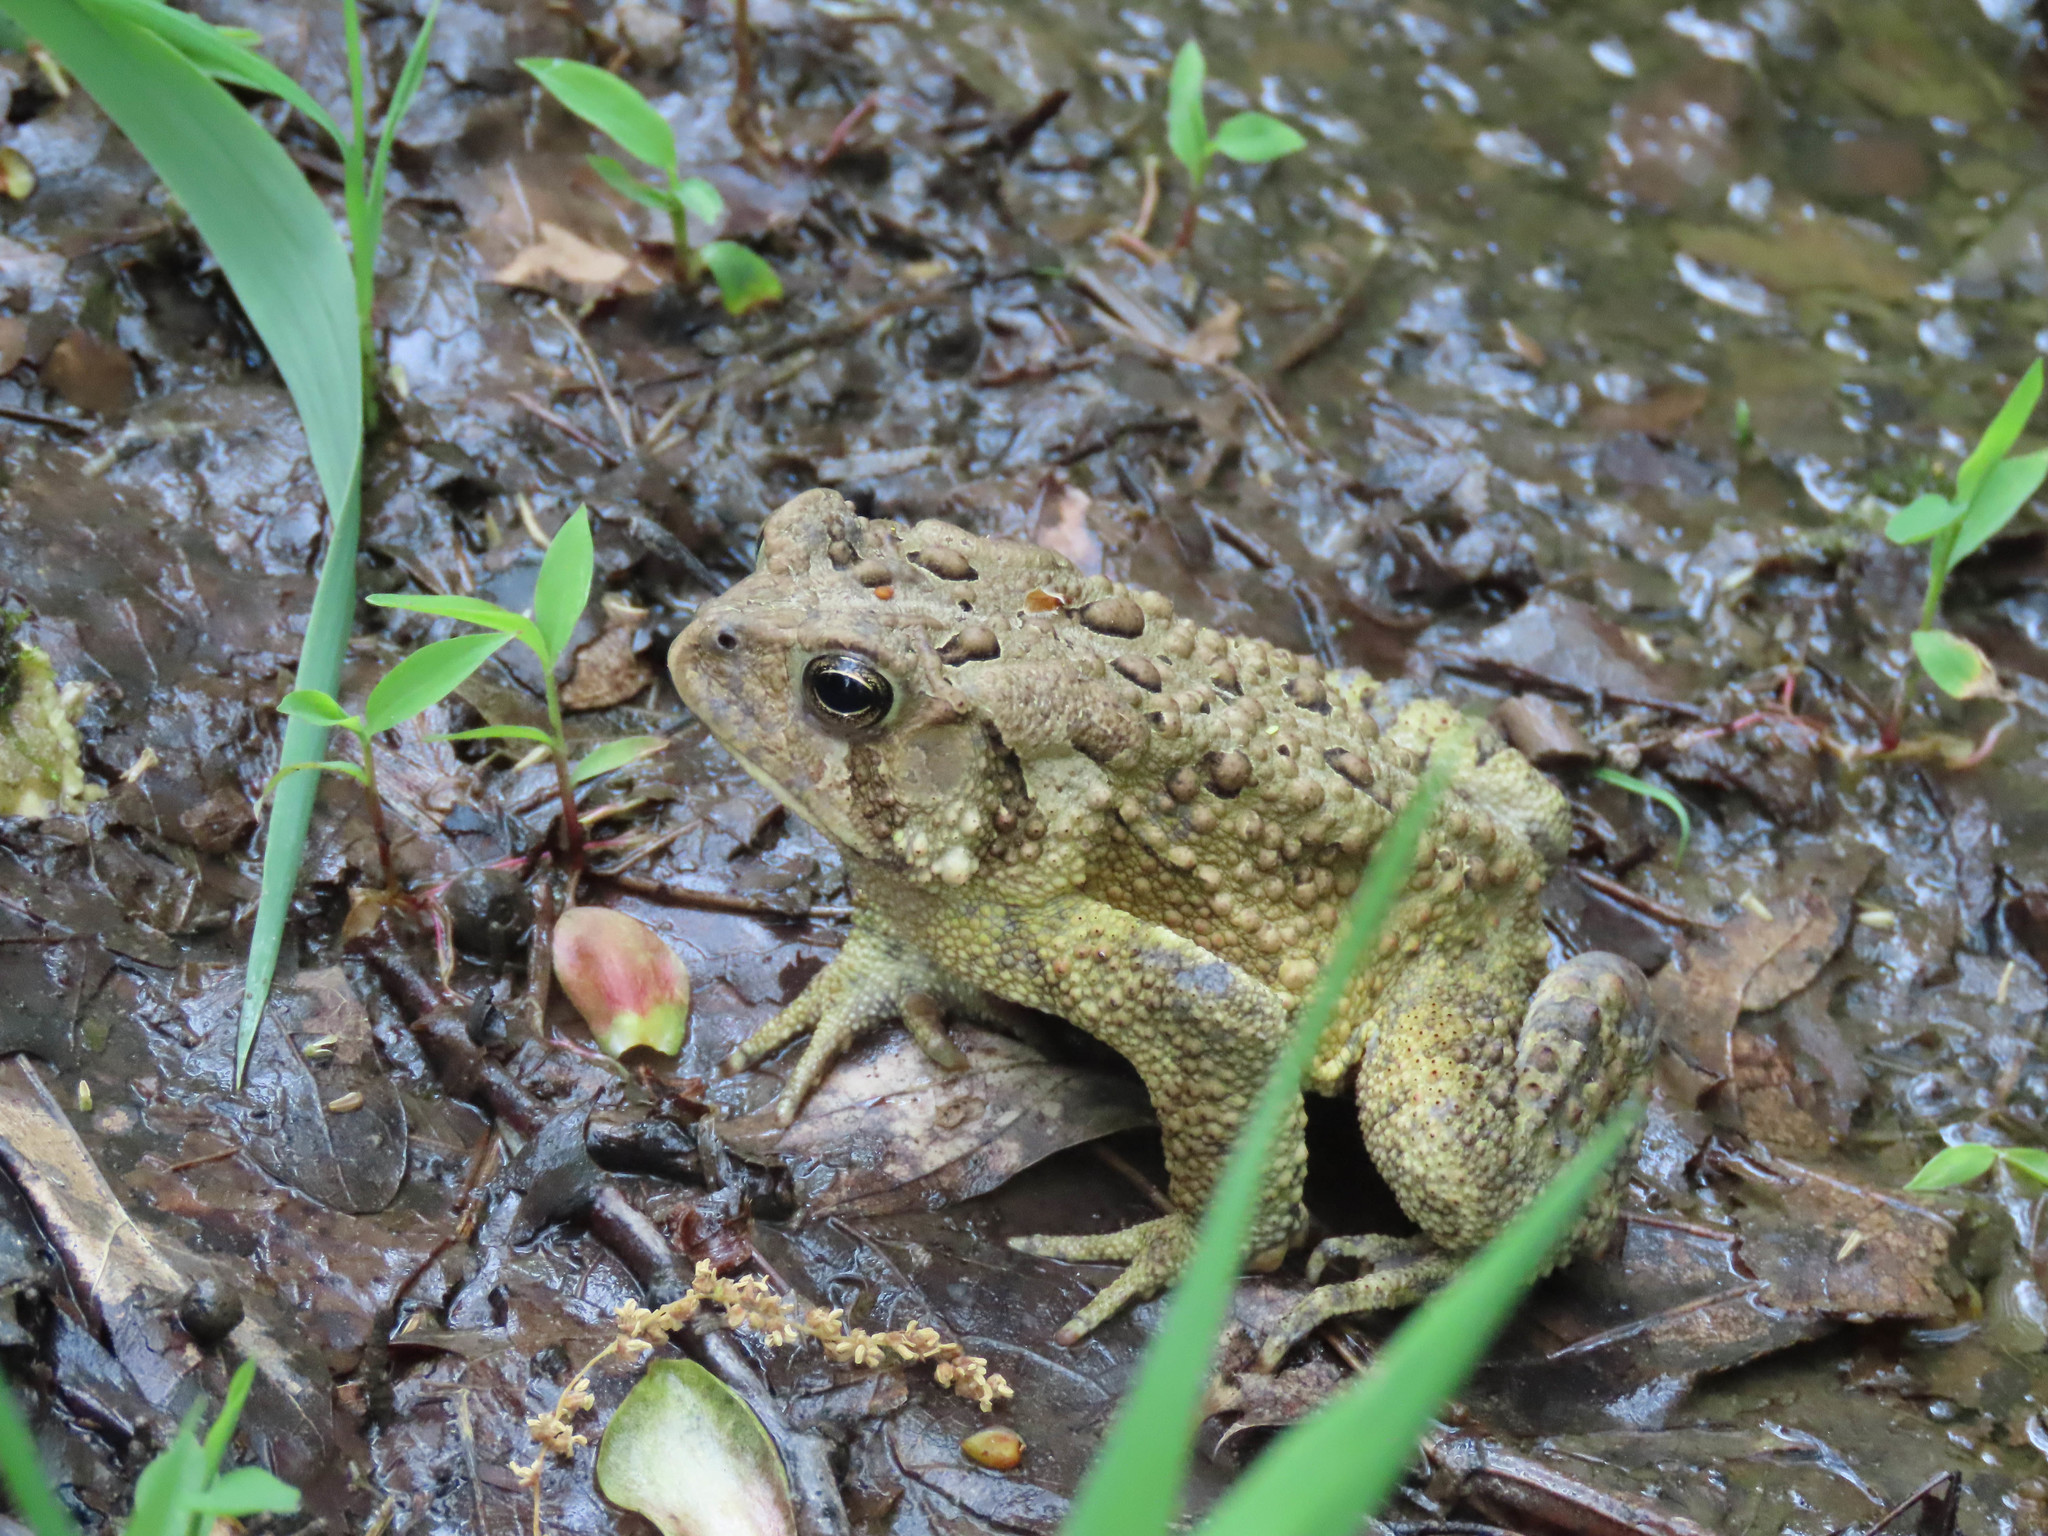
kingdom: Animalia
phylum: Chordata
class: Amphibia
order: Anura
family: Bufonidae
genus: Anaxyrus
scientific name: Anaxyrus americanus
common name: American toad
